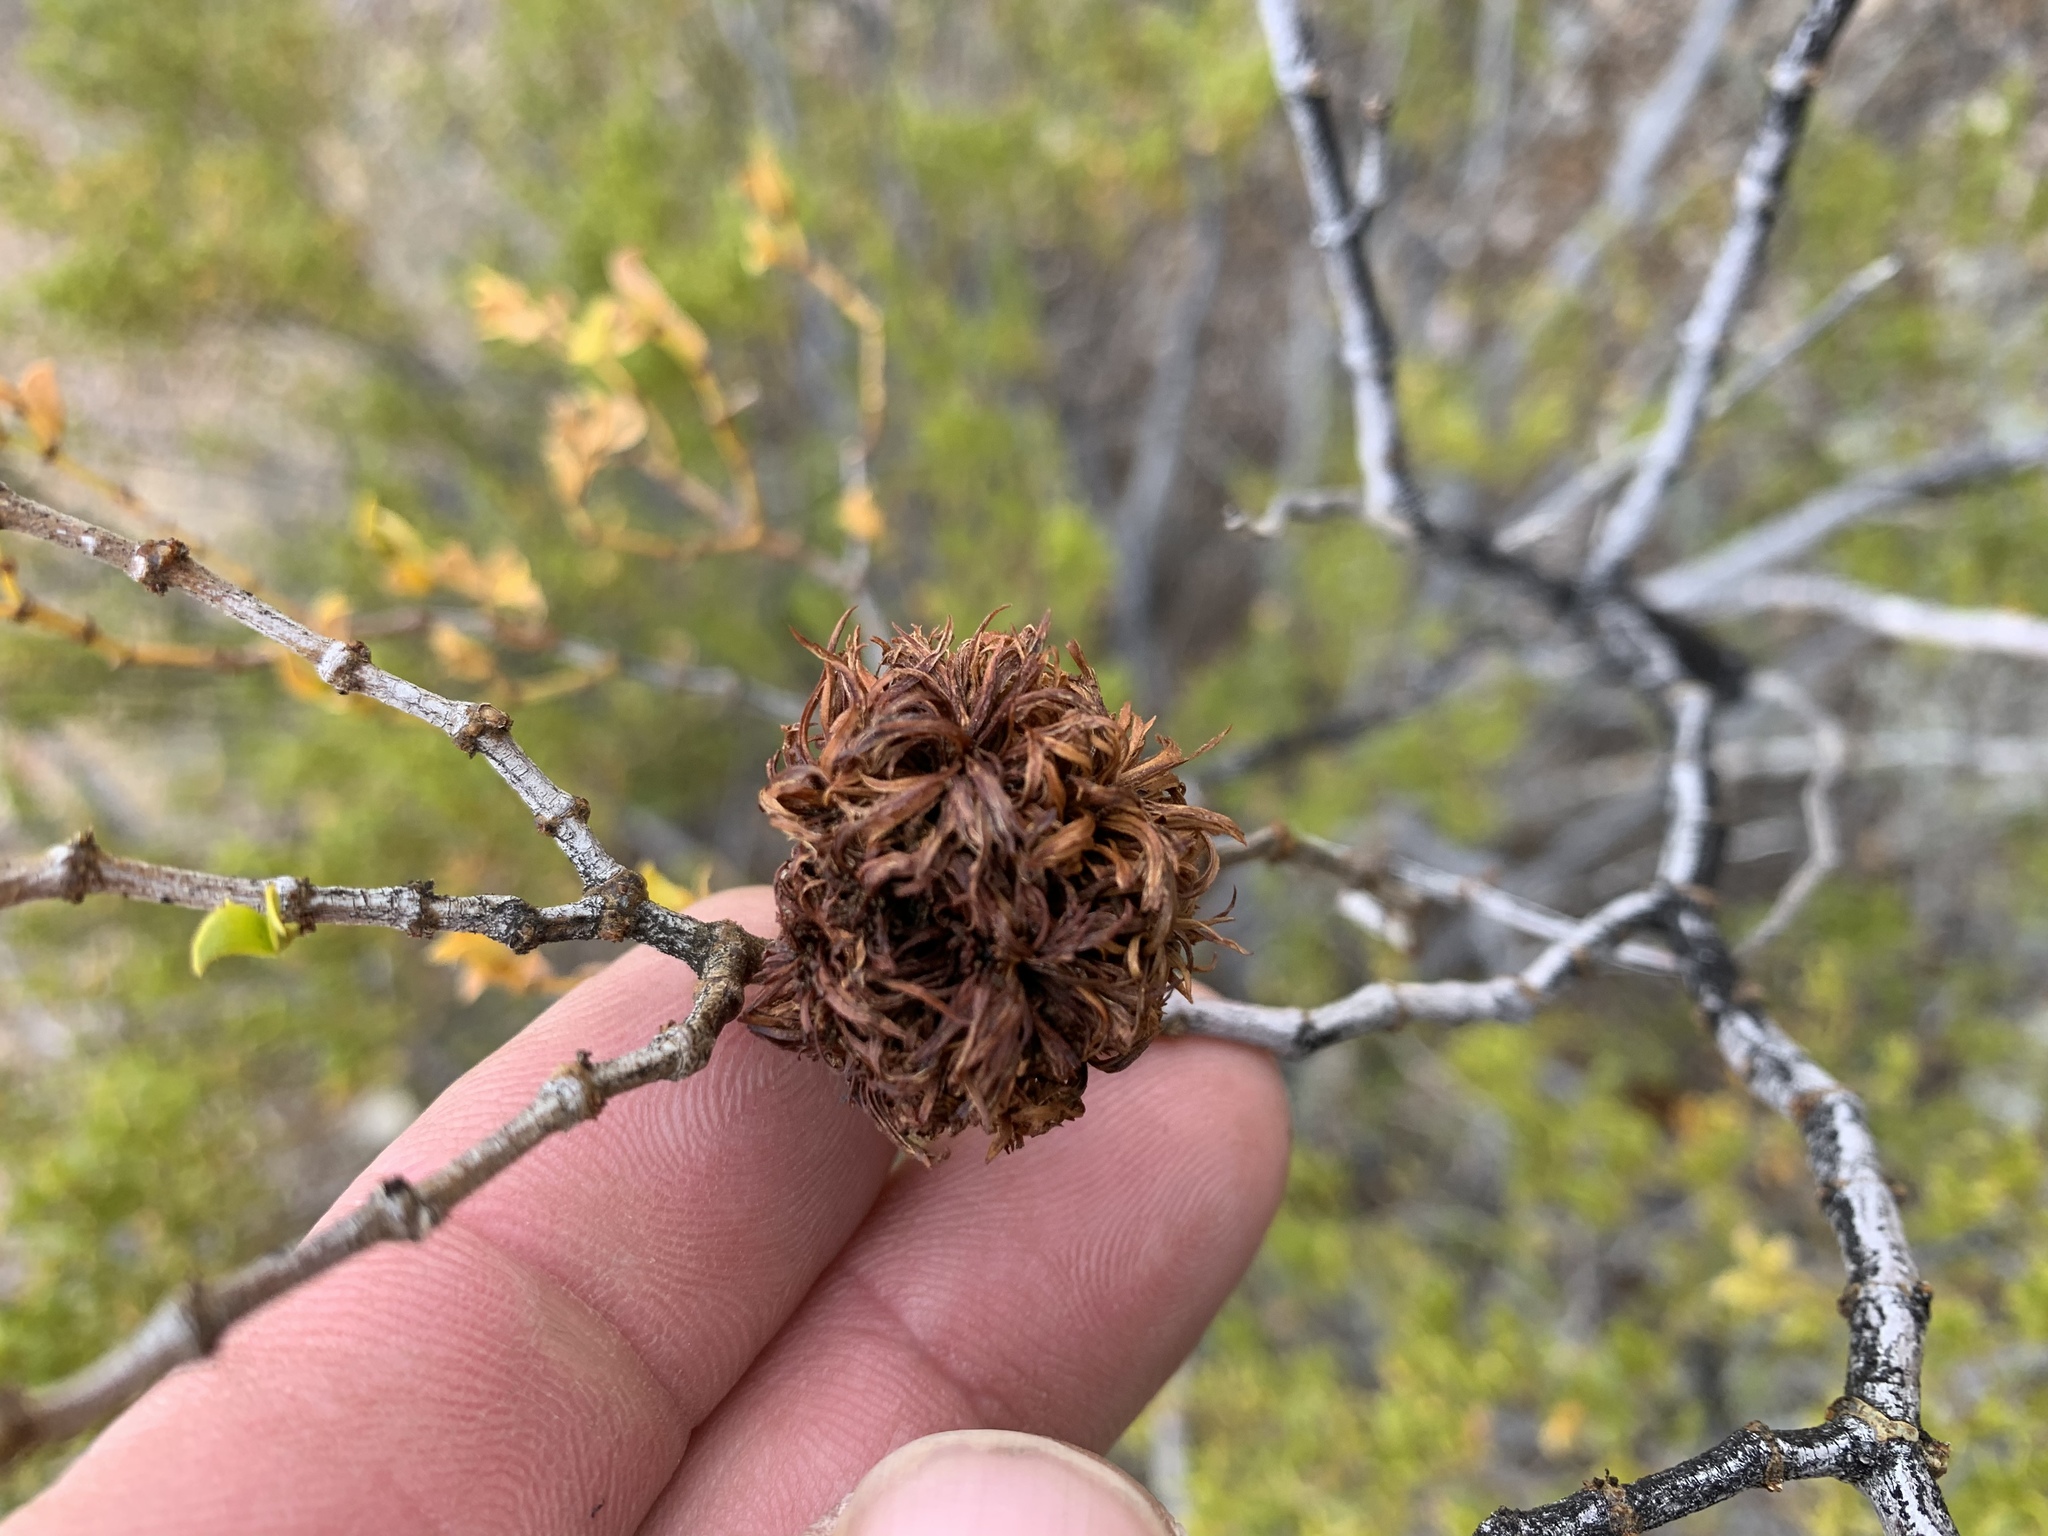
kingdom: Animalia
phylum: Arthropoda
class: Insecta
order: Diptera
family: Cecidomyiidae
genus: Asphondylia
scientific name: Asphondylia auripila
